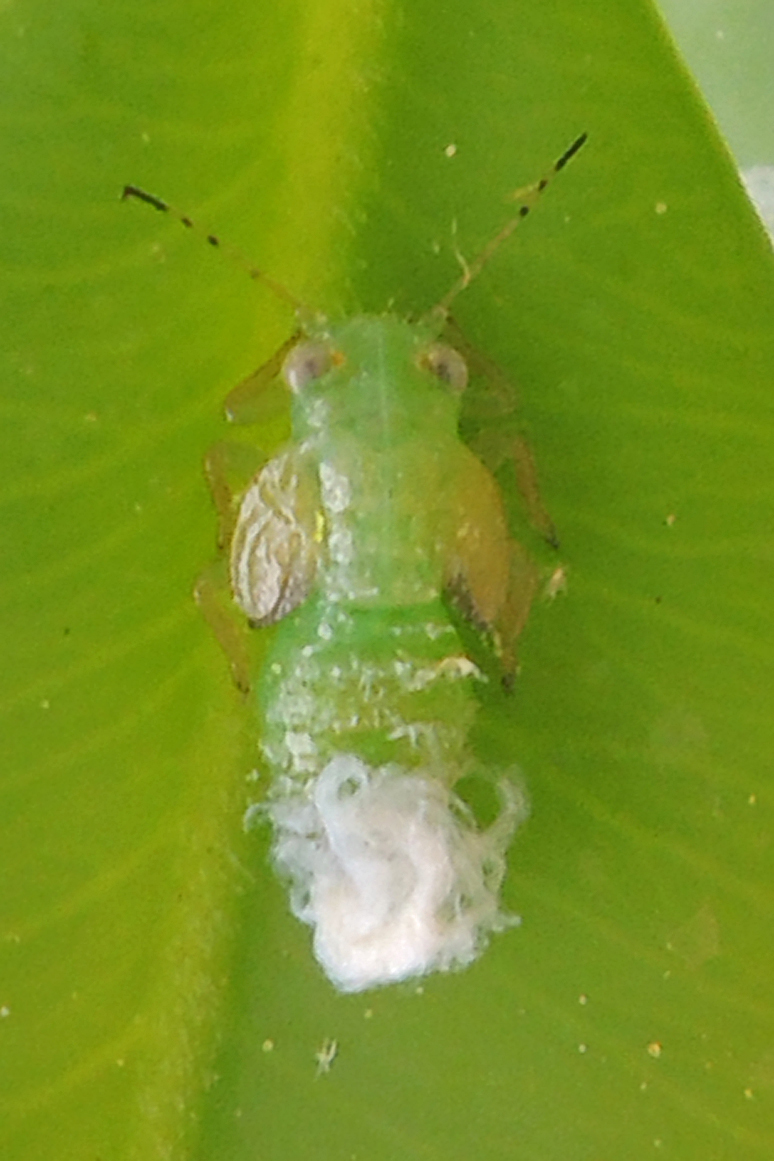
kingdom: Animalia
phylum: Arthropoda
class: Insecta
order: Hemiptera
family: Psyllidae
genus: Psylla
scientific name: Psylla buxi
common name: Boxwood psyllid
